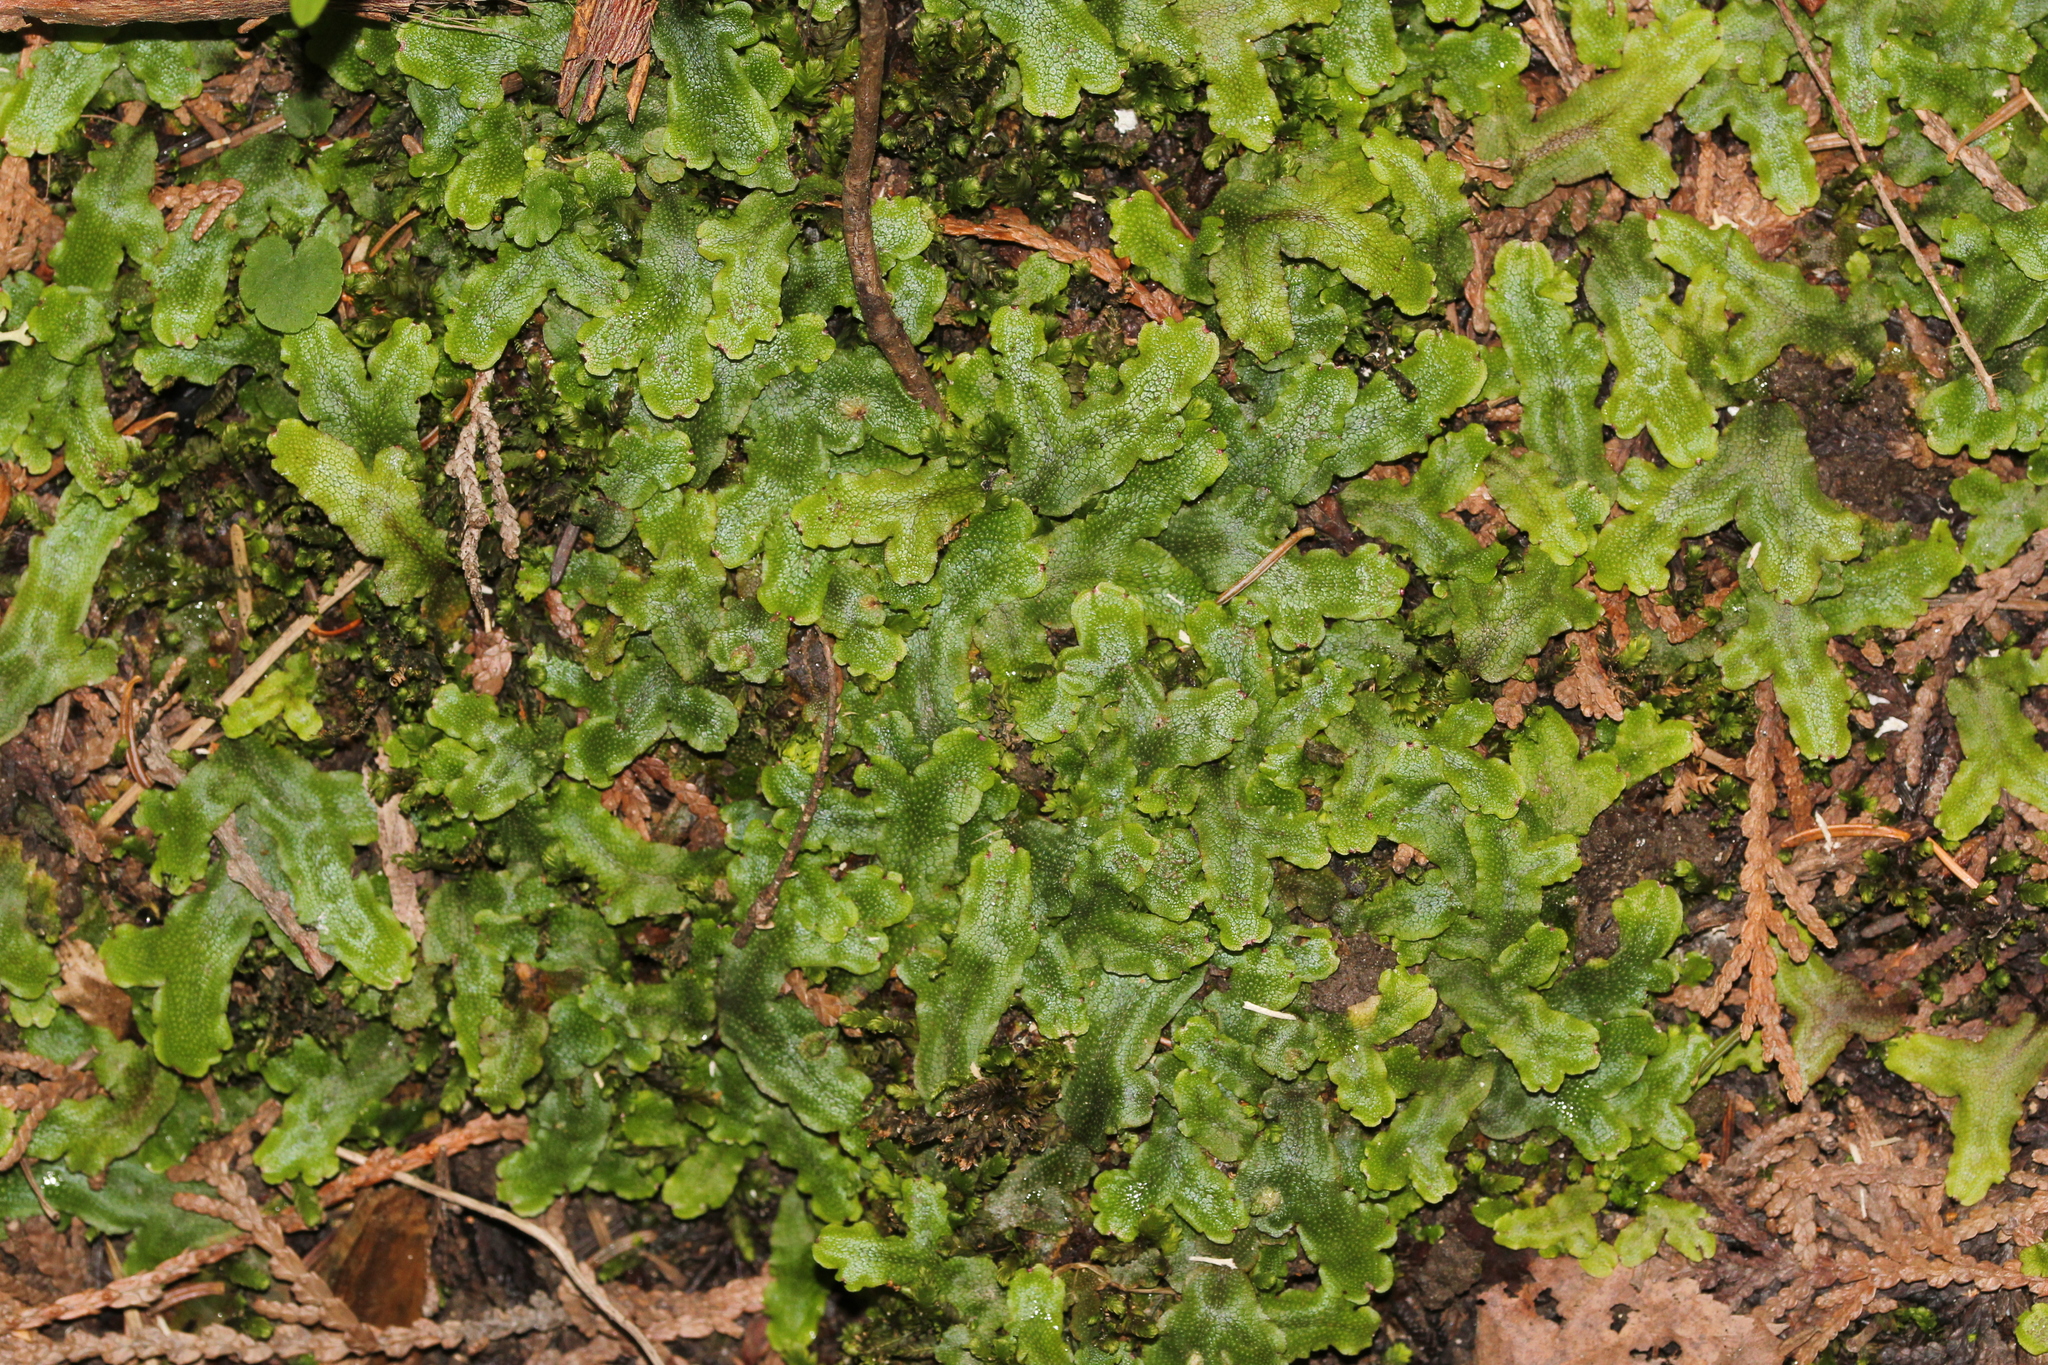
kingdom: Plantae
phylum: Marchantiophyta
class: Marchantiopsida
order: Marchantiales
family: Conocephalaceae
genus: Conocephalum
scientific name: Conocephalum salebrosum
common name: Cat-tongue liverwort
